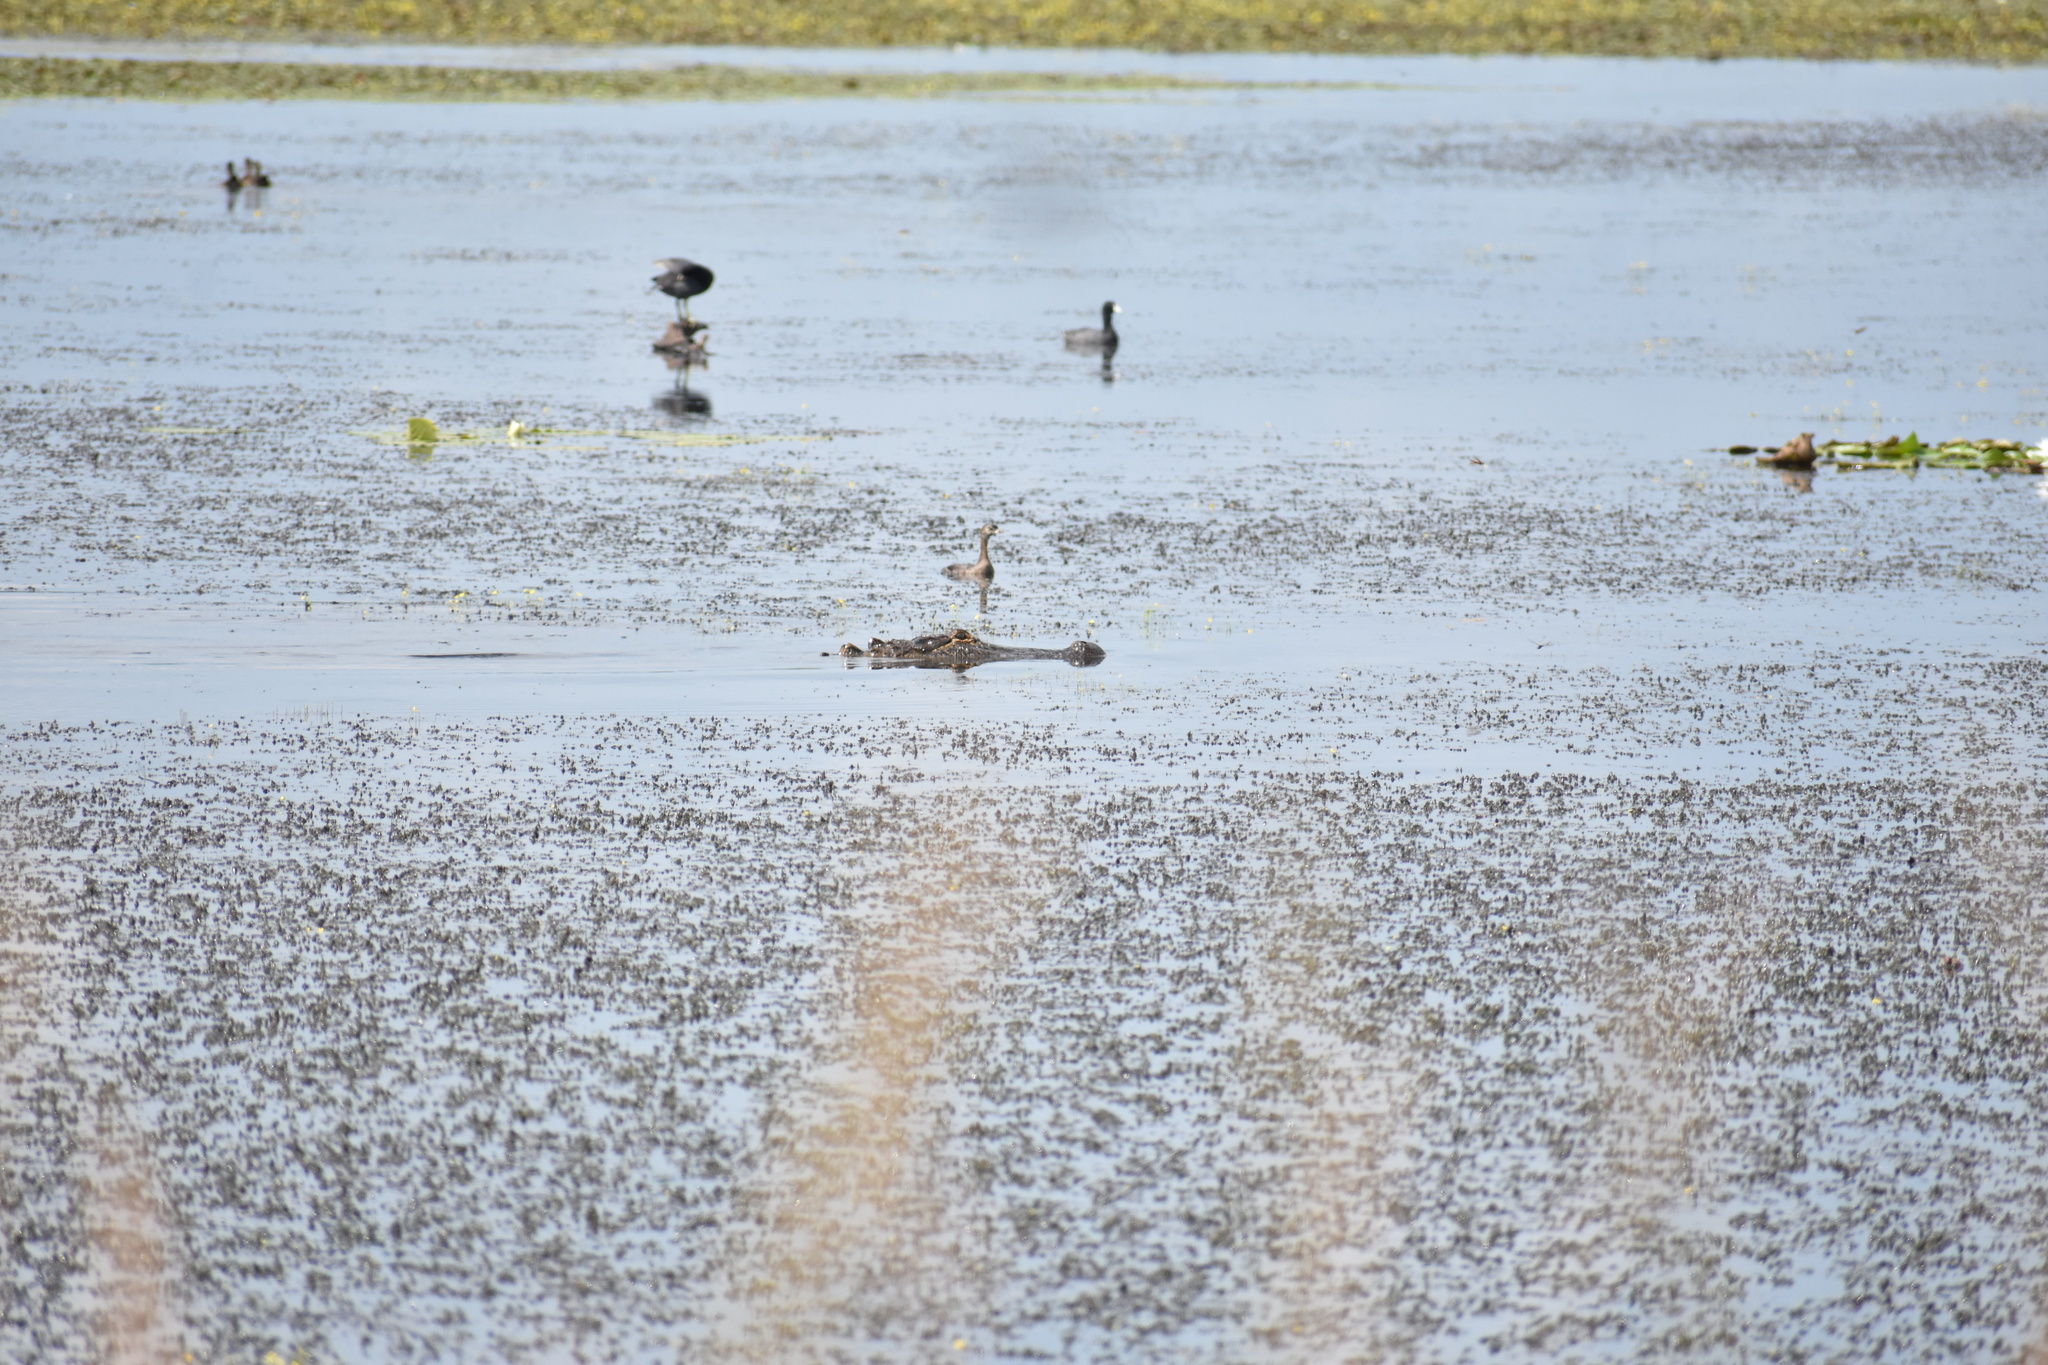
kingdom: Animalia
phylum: Chordata
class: Crocodylia
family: Alligatoridae
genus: Alligator
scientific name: Alligator mississippiensis
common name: American alligator
